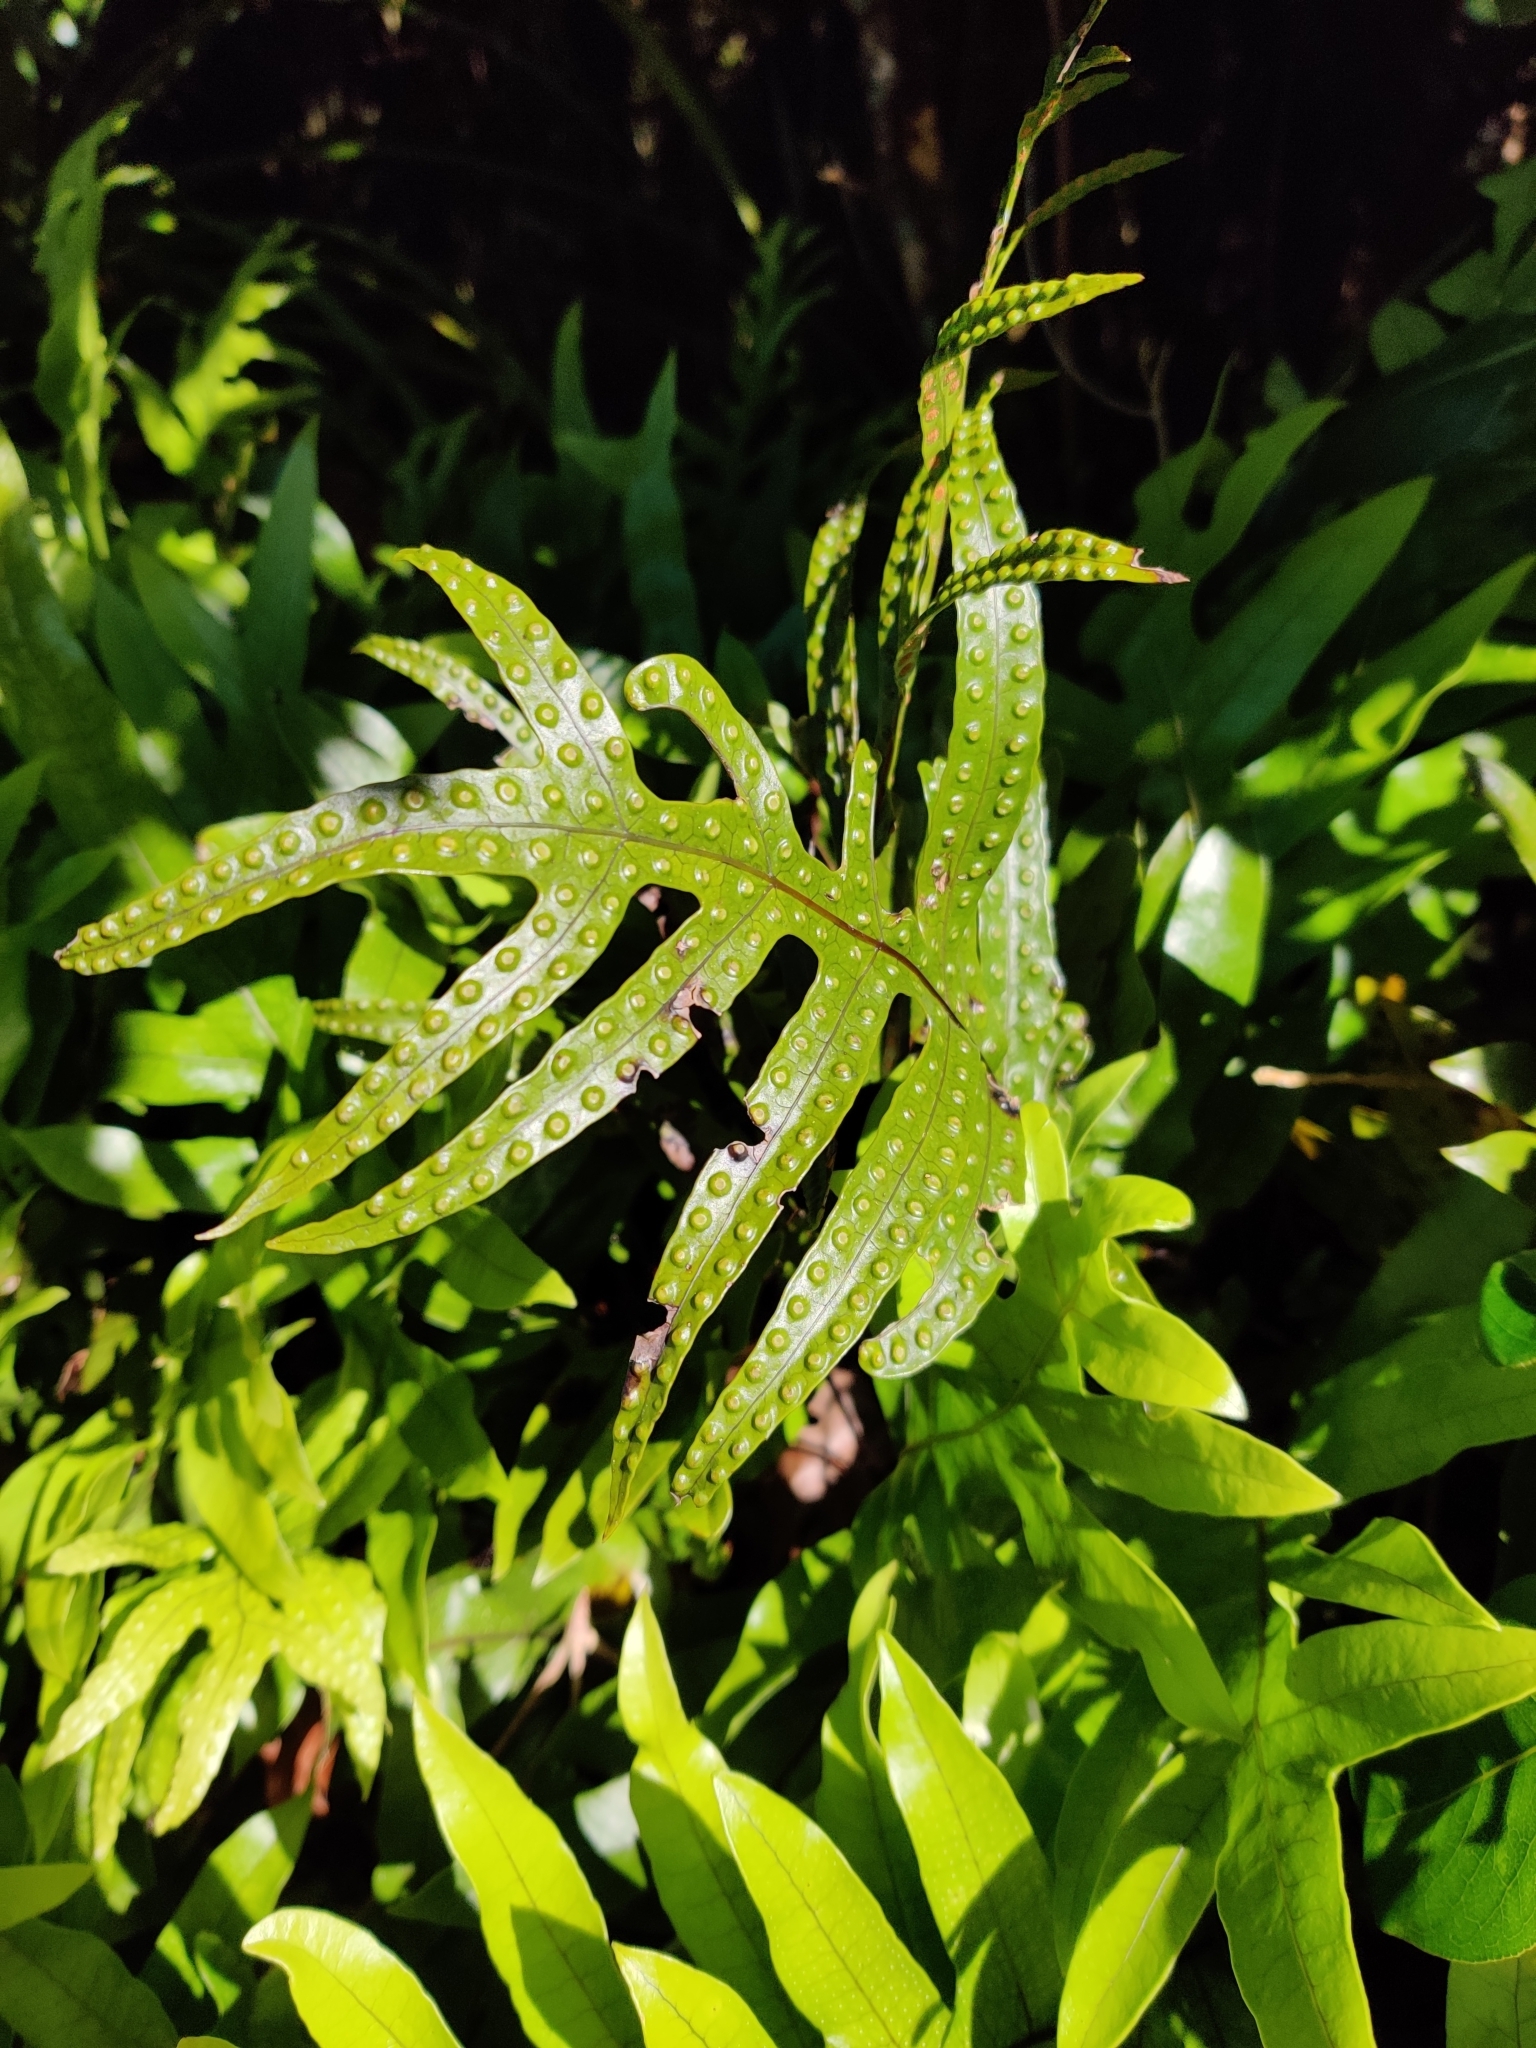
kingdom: Plantae
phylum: Tracheophyta
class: Polypodiopsida
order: Polypodiales
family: Polypodiaceae
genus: Lecanopteris
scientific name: Lecanopteris pustulata
